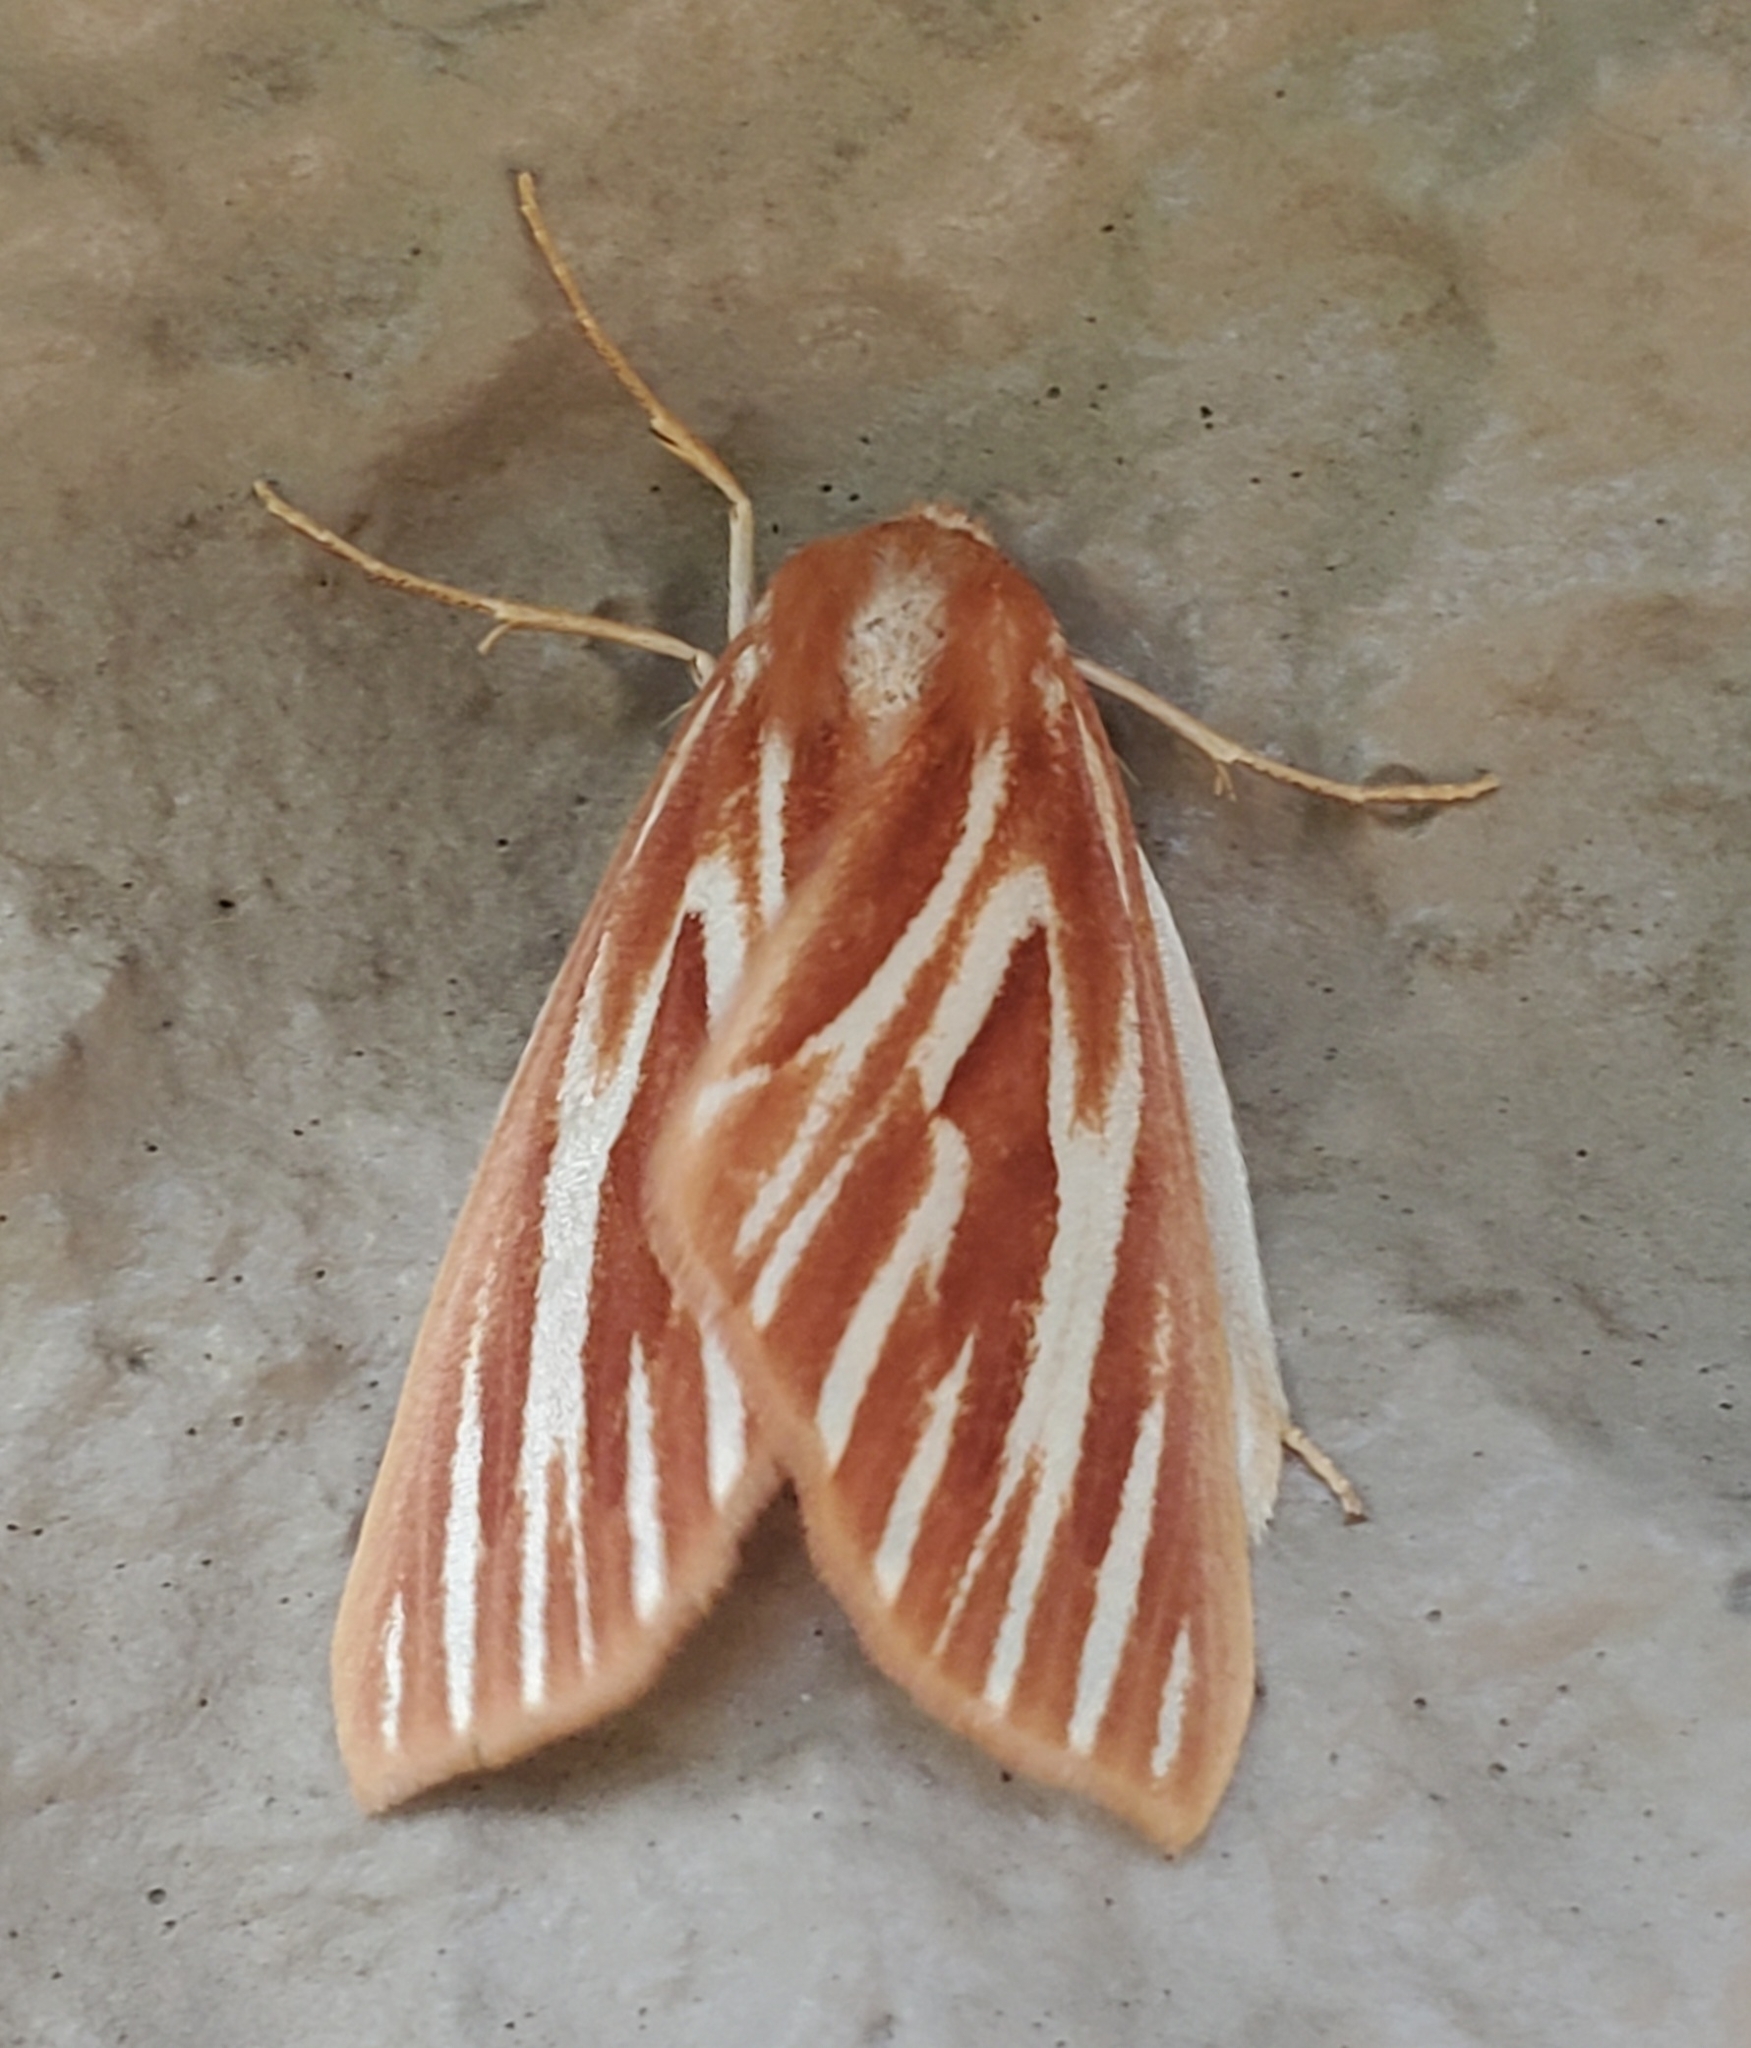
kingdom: Animalia
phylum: Arthropoda
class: Insecta
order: Lepidoptera
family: Geometridae
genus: Sabulodes
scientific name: Sabulodes niveostriata
